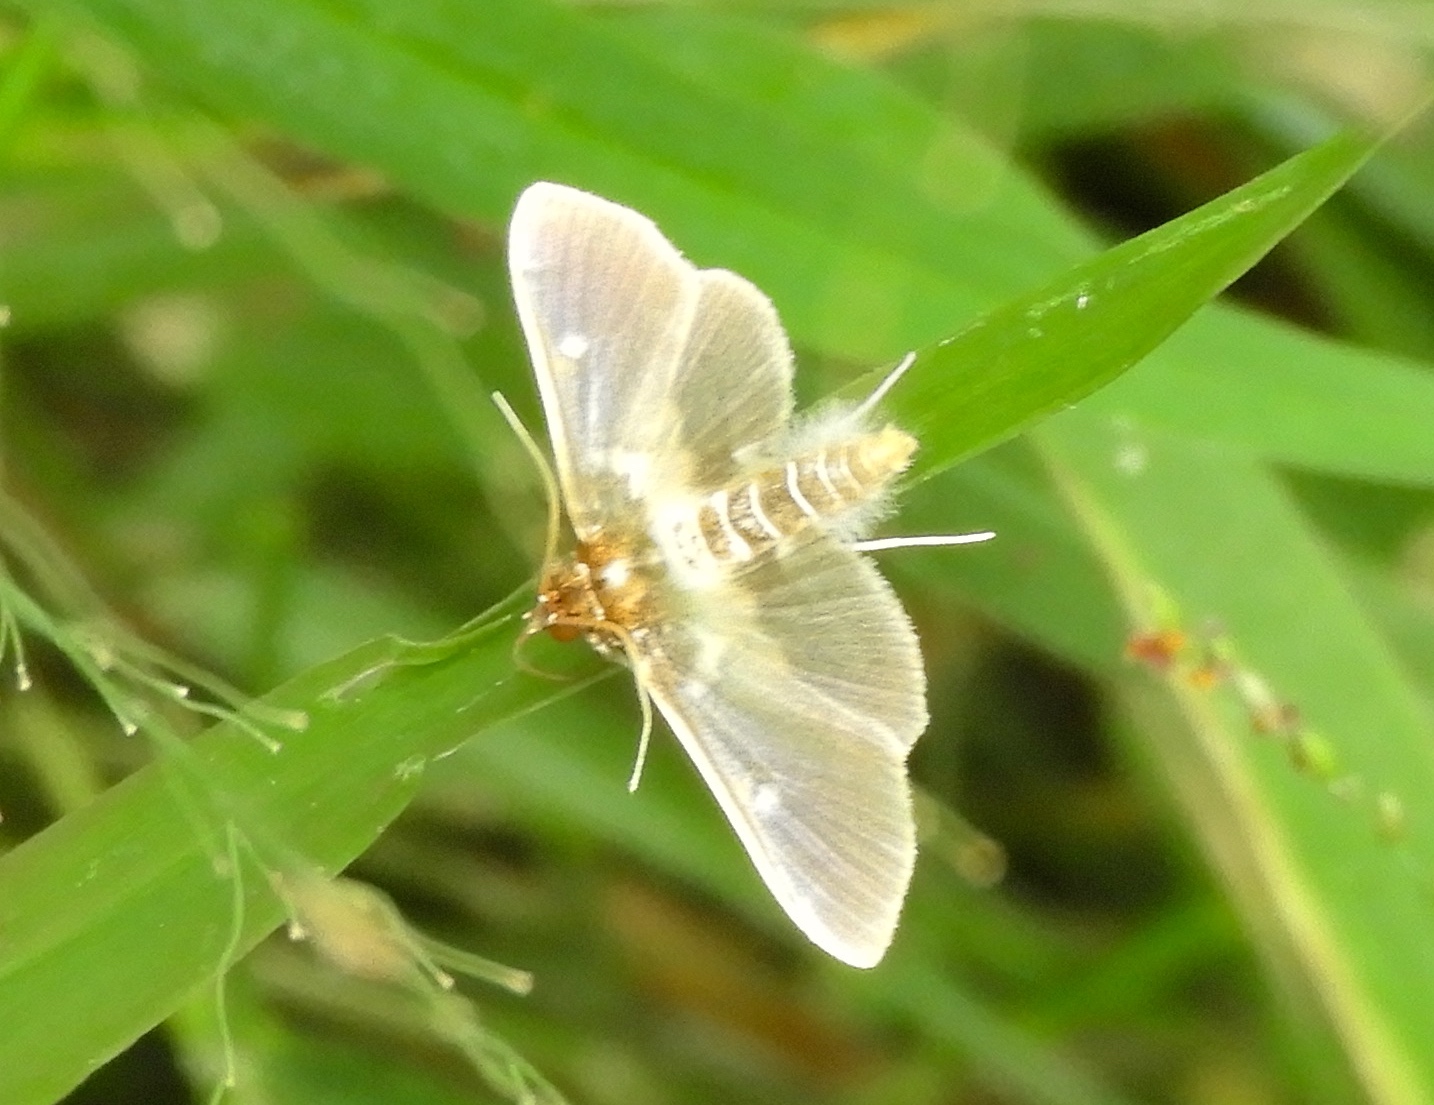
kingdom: Animalia
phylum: Arthropoda
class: Insecta
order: Lepidoptera
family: Crambidae
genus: Apilocrocis
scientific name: Apilocrocis brumalis
